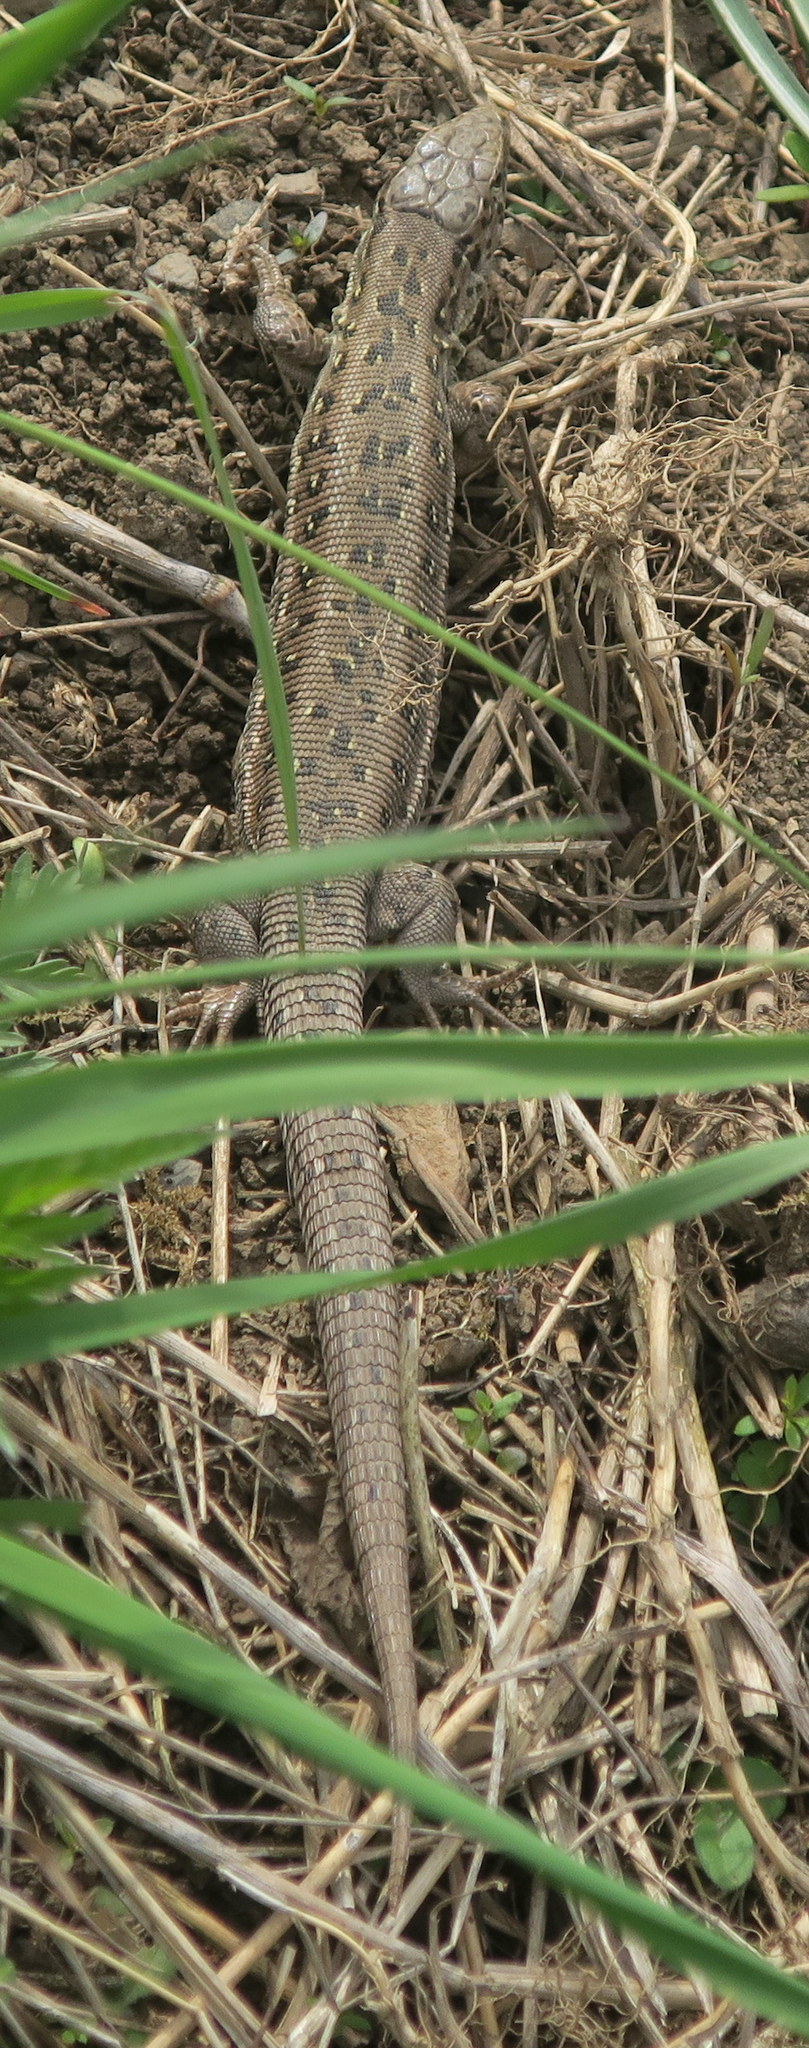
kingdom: Animalia
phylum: Chordata
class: Squamata
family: Lacertidae
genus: Lacerta
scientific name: Lacerta agilis
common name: Sand lizard
